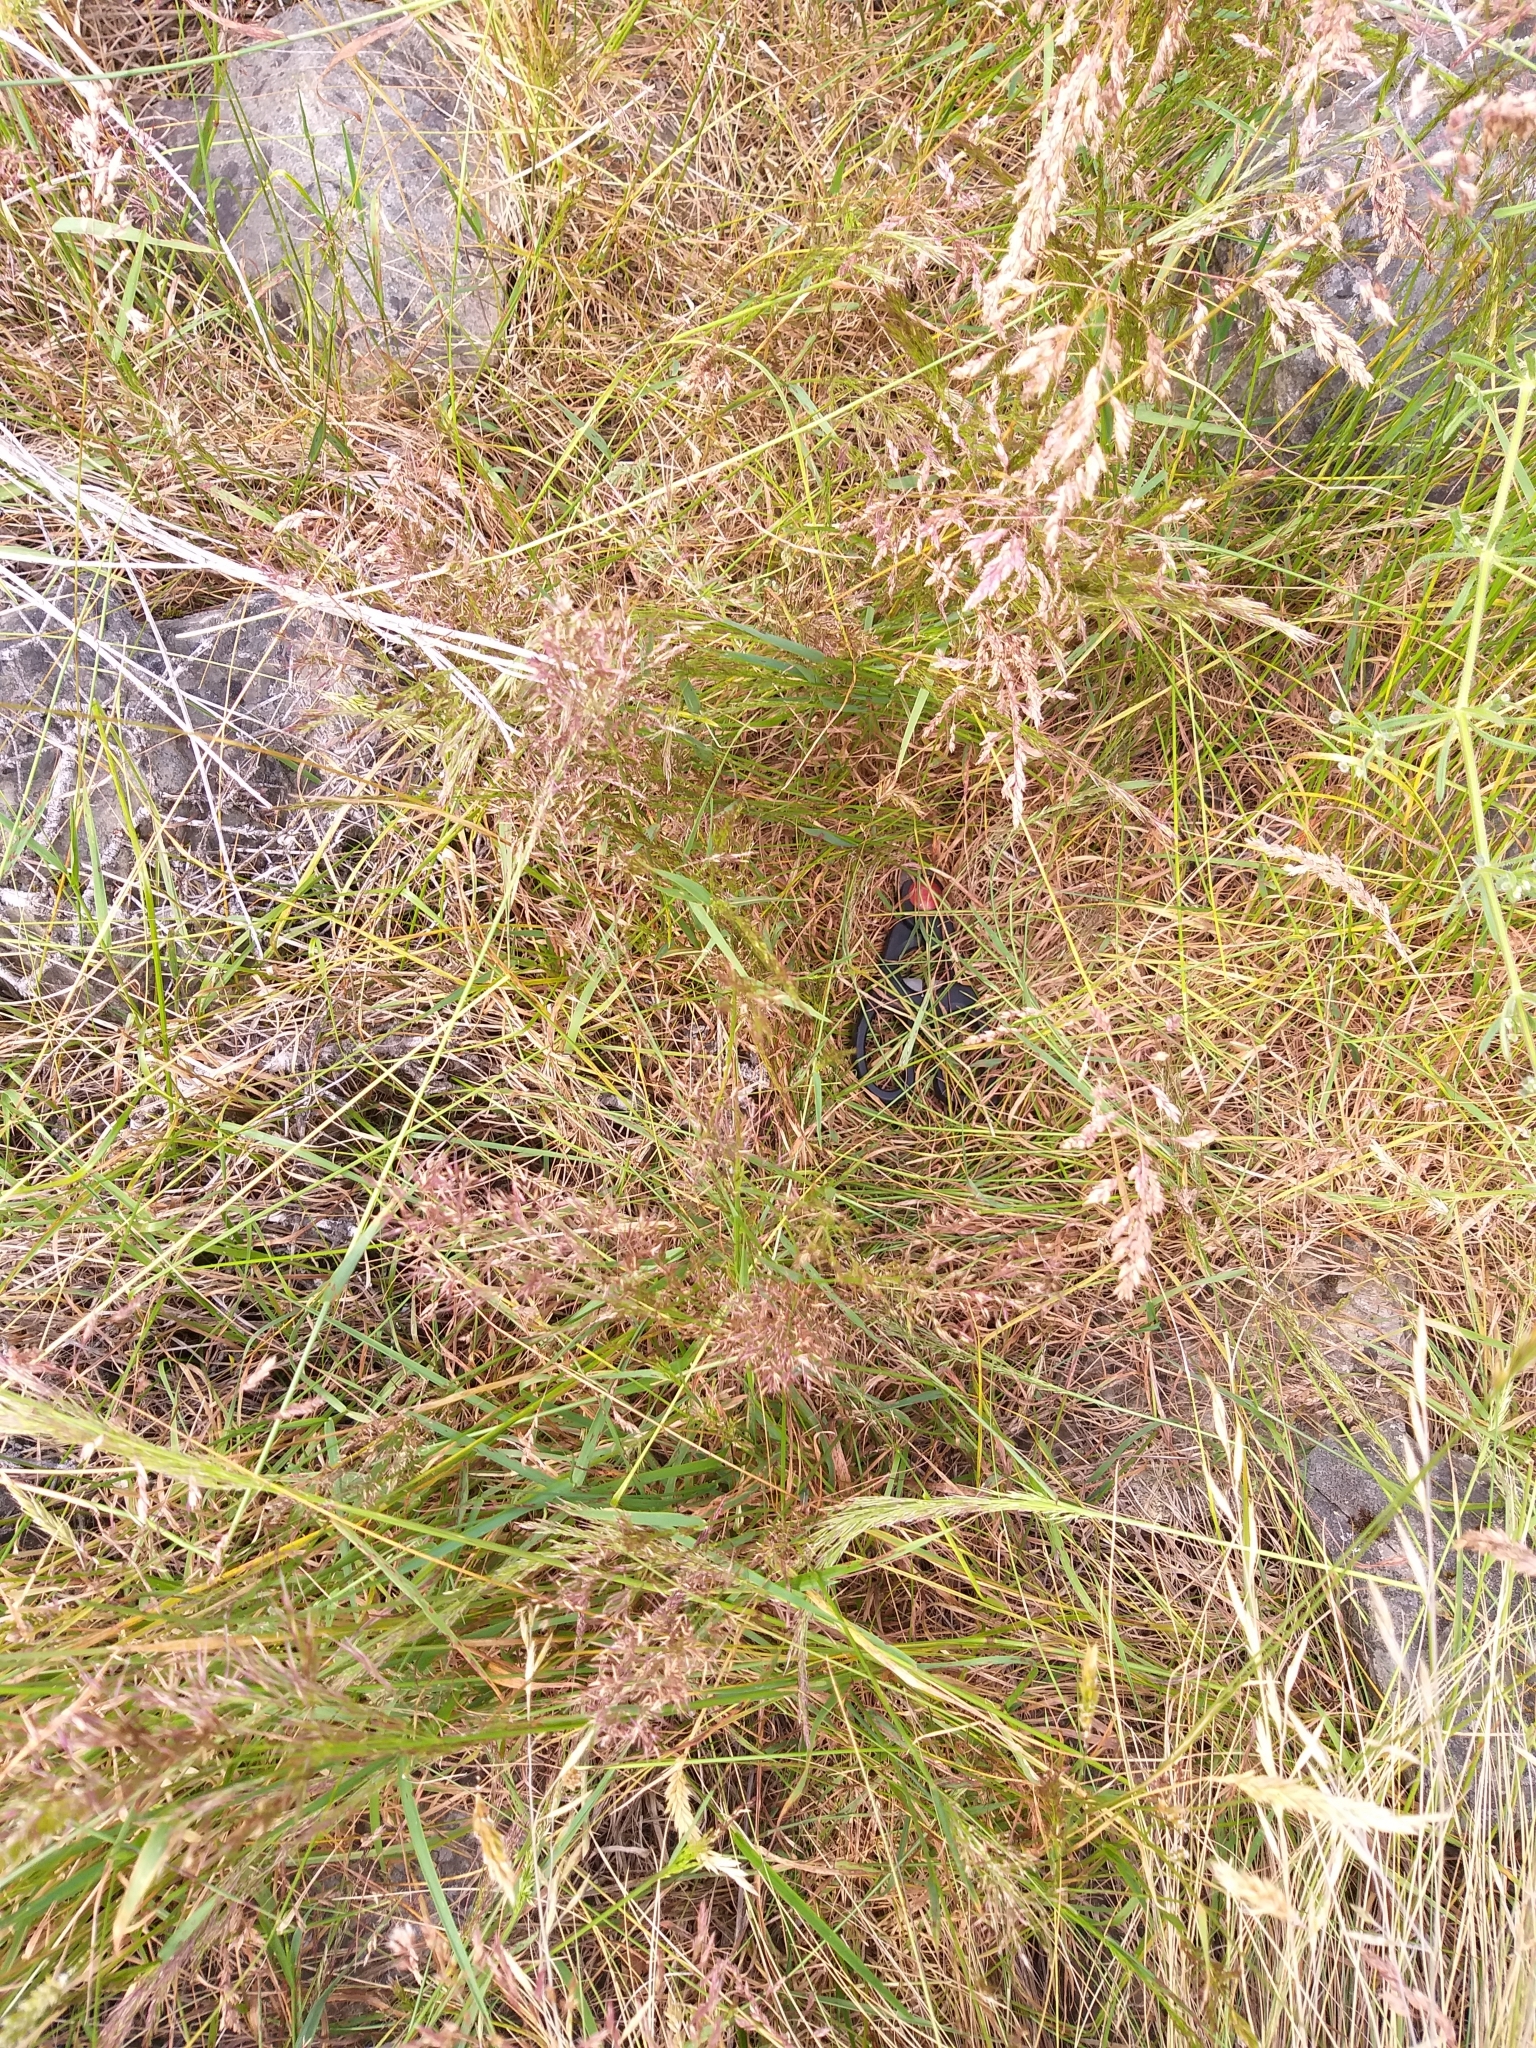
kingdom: Plantae
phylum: Tracheophyta
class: Liliopsida
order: Poales
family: Poaceae
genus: Agrostis
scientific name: Agrostis capillaris
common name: Colonial bentgrass
